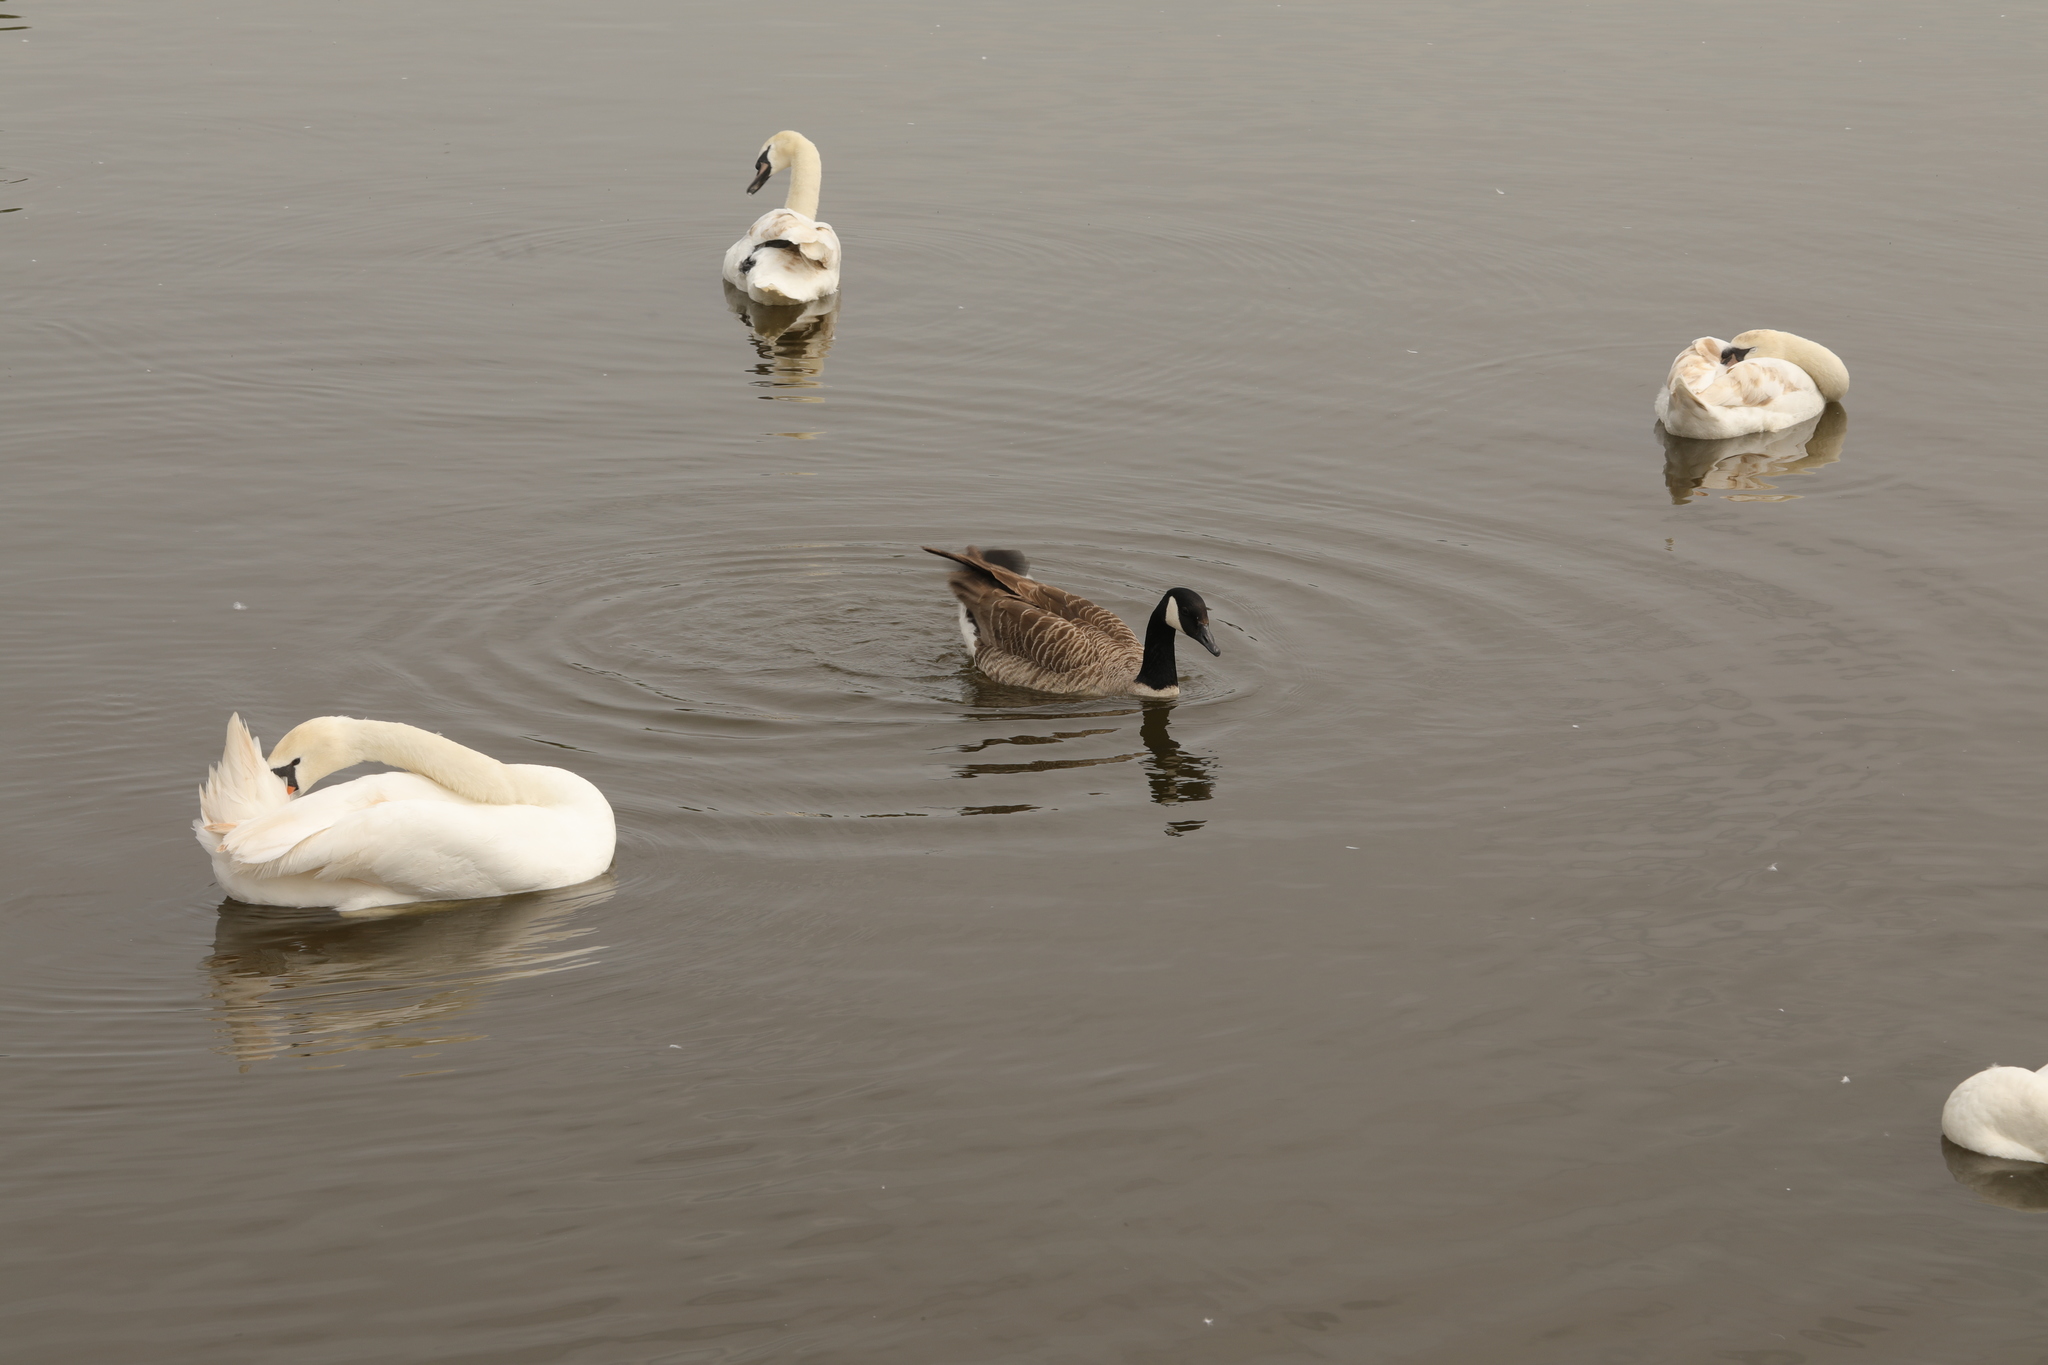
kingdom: Animalia
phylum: Chordata
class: Aves
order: Anseriformes
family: Anatidae
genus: Branta
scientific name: Branta canadensis
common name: Canada goose
